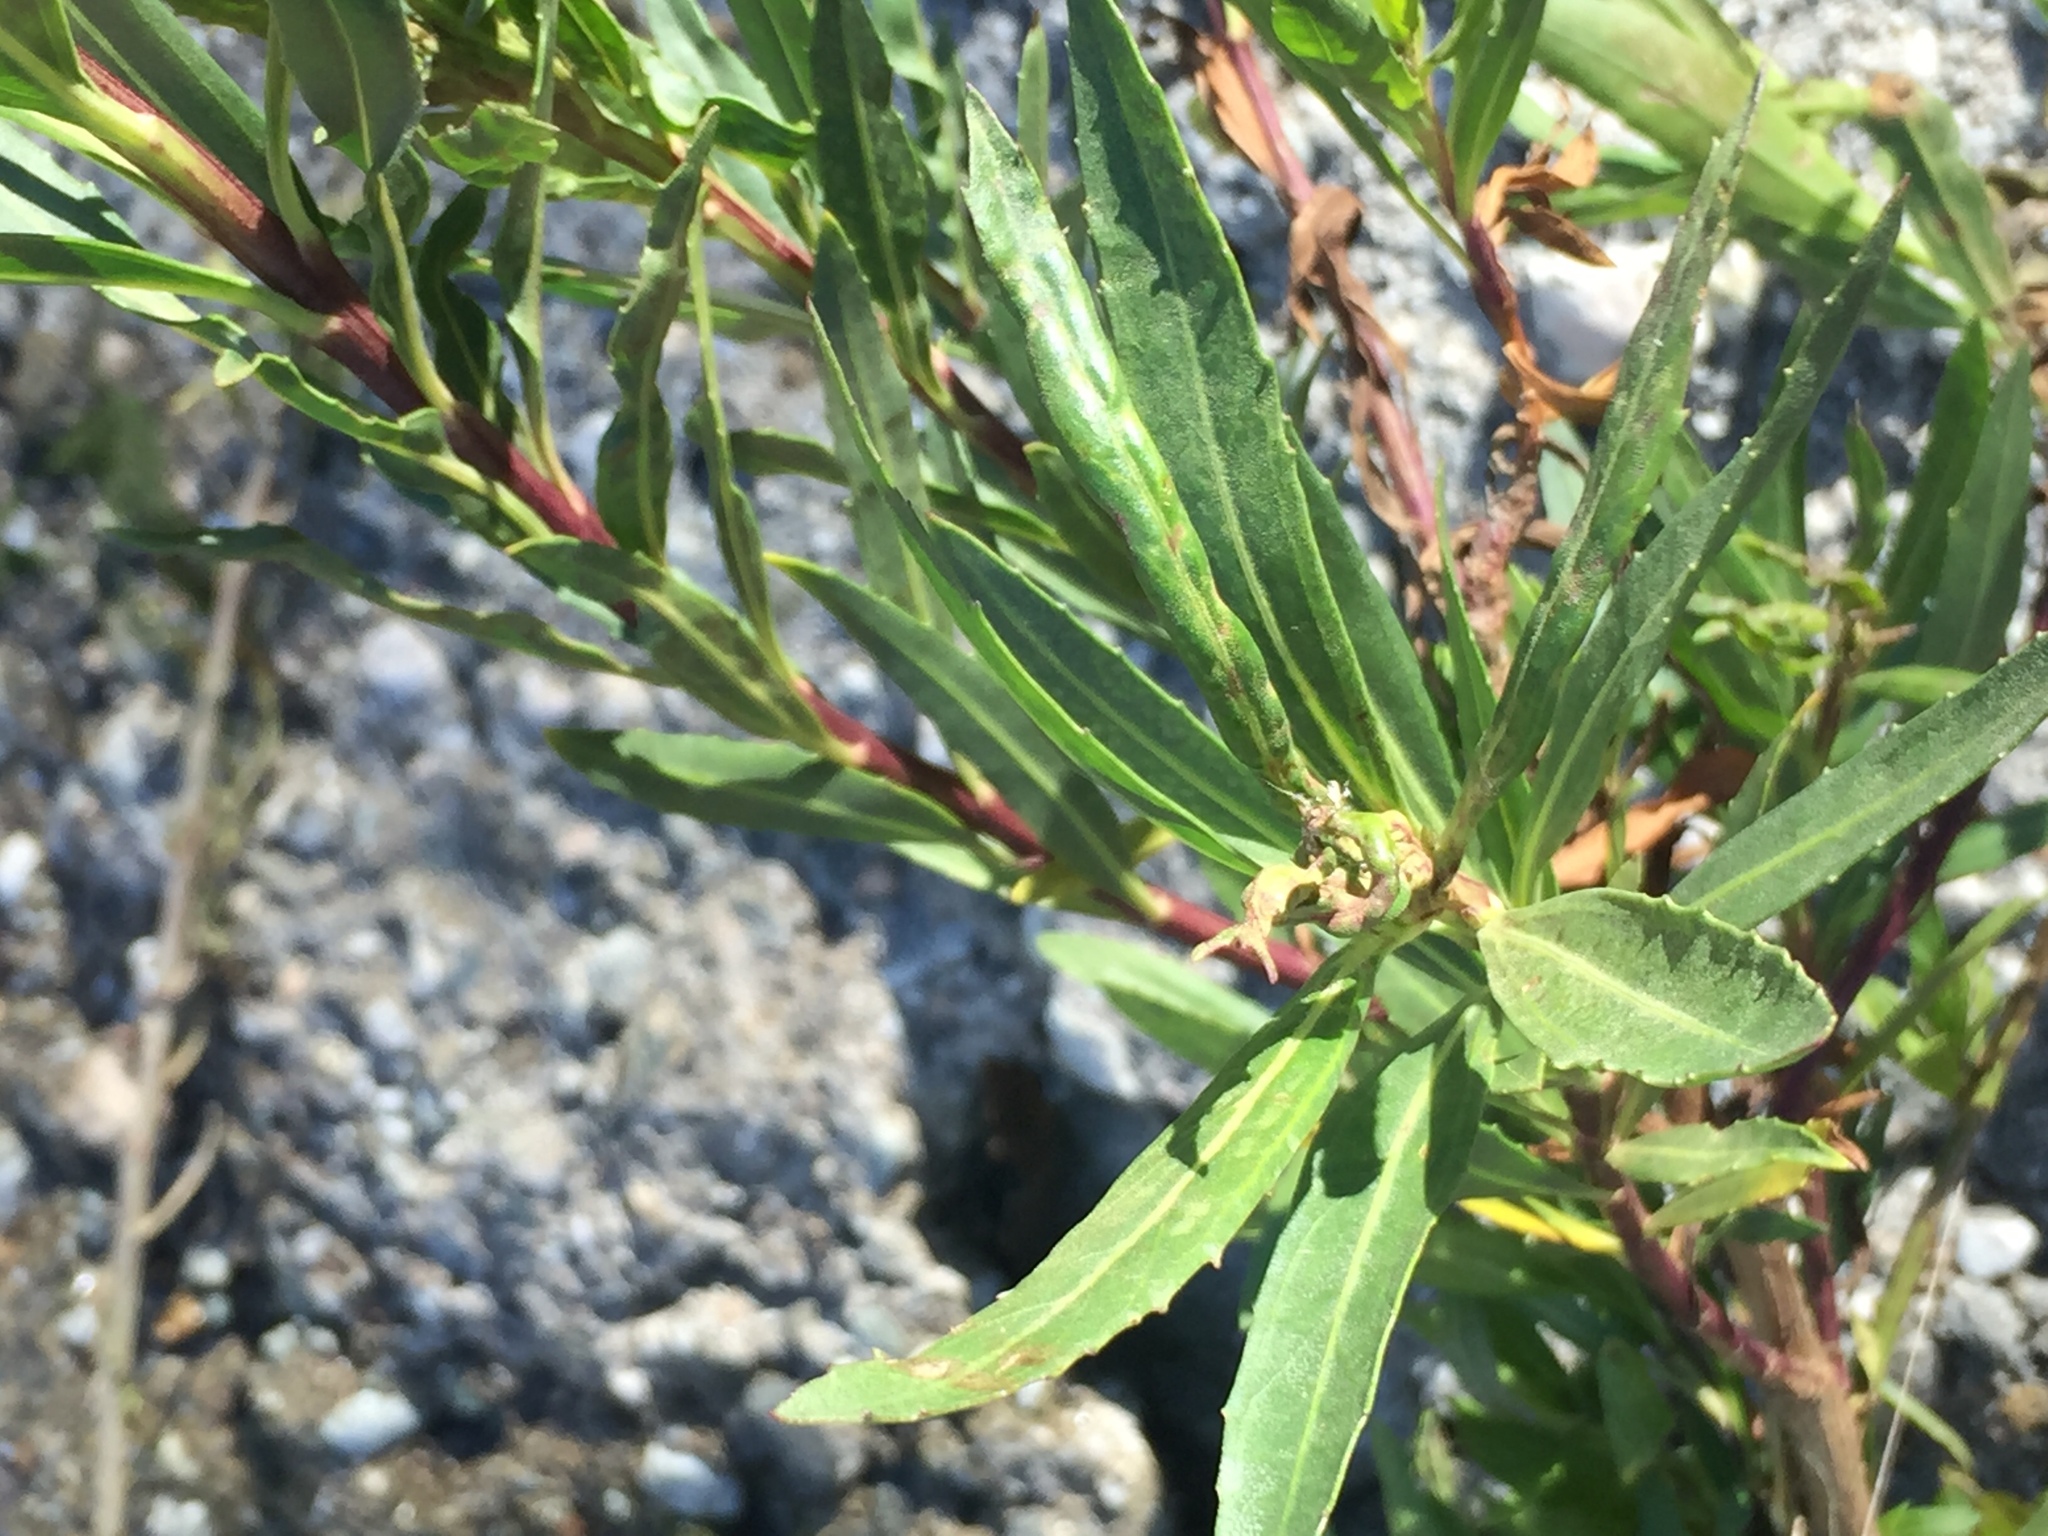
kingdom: Plantae
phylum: Tracheophyta
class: Magnoliopsida
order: Asterales
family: Asteraceae
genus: Baccharis
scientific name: Baccharis salicifolia
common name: Sticky baccharis
